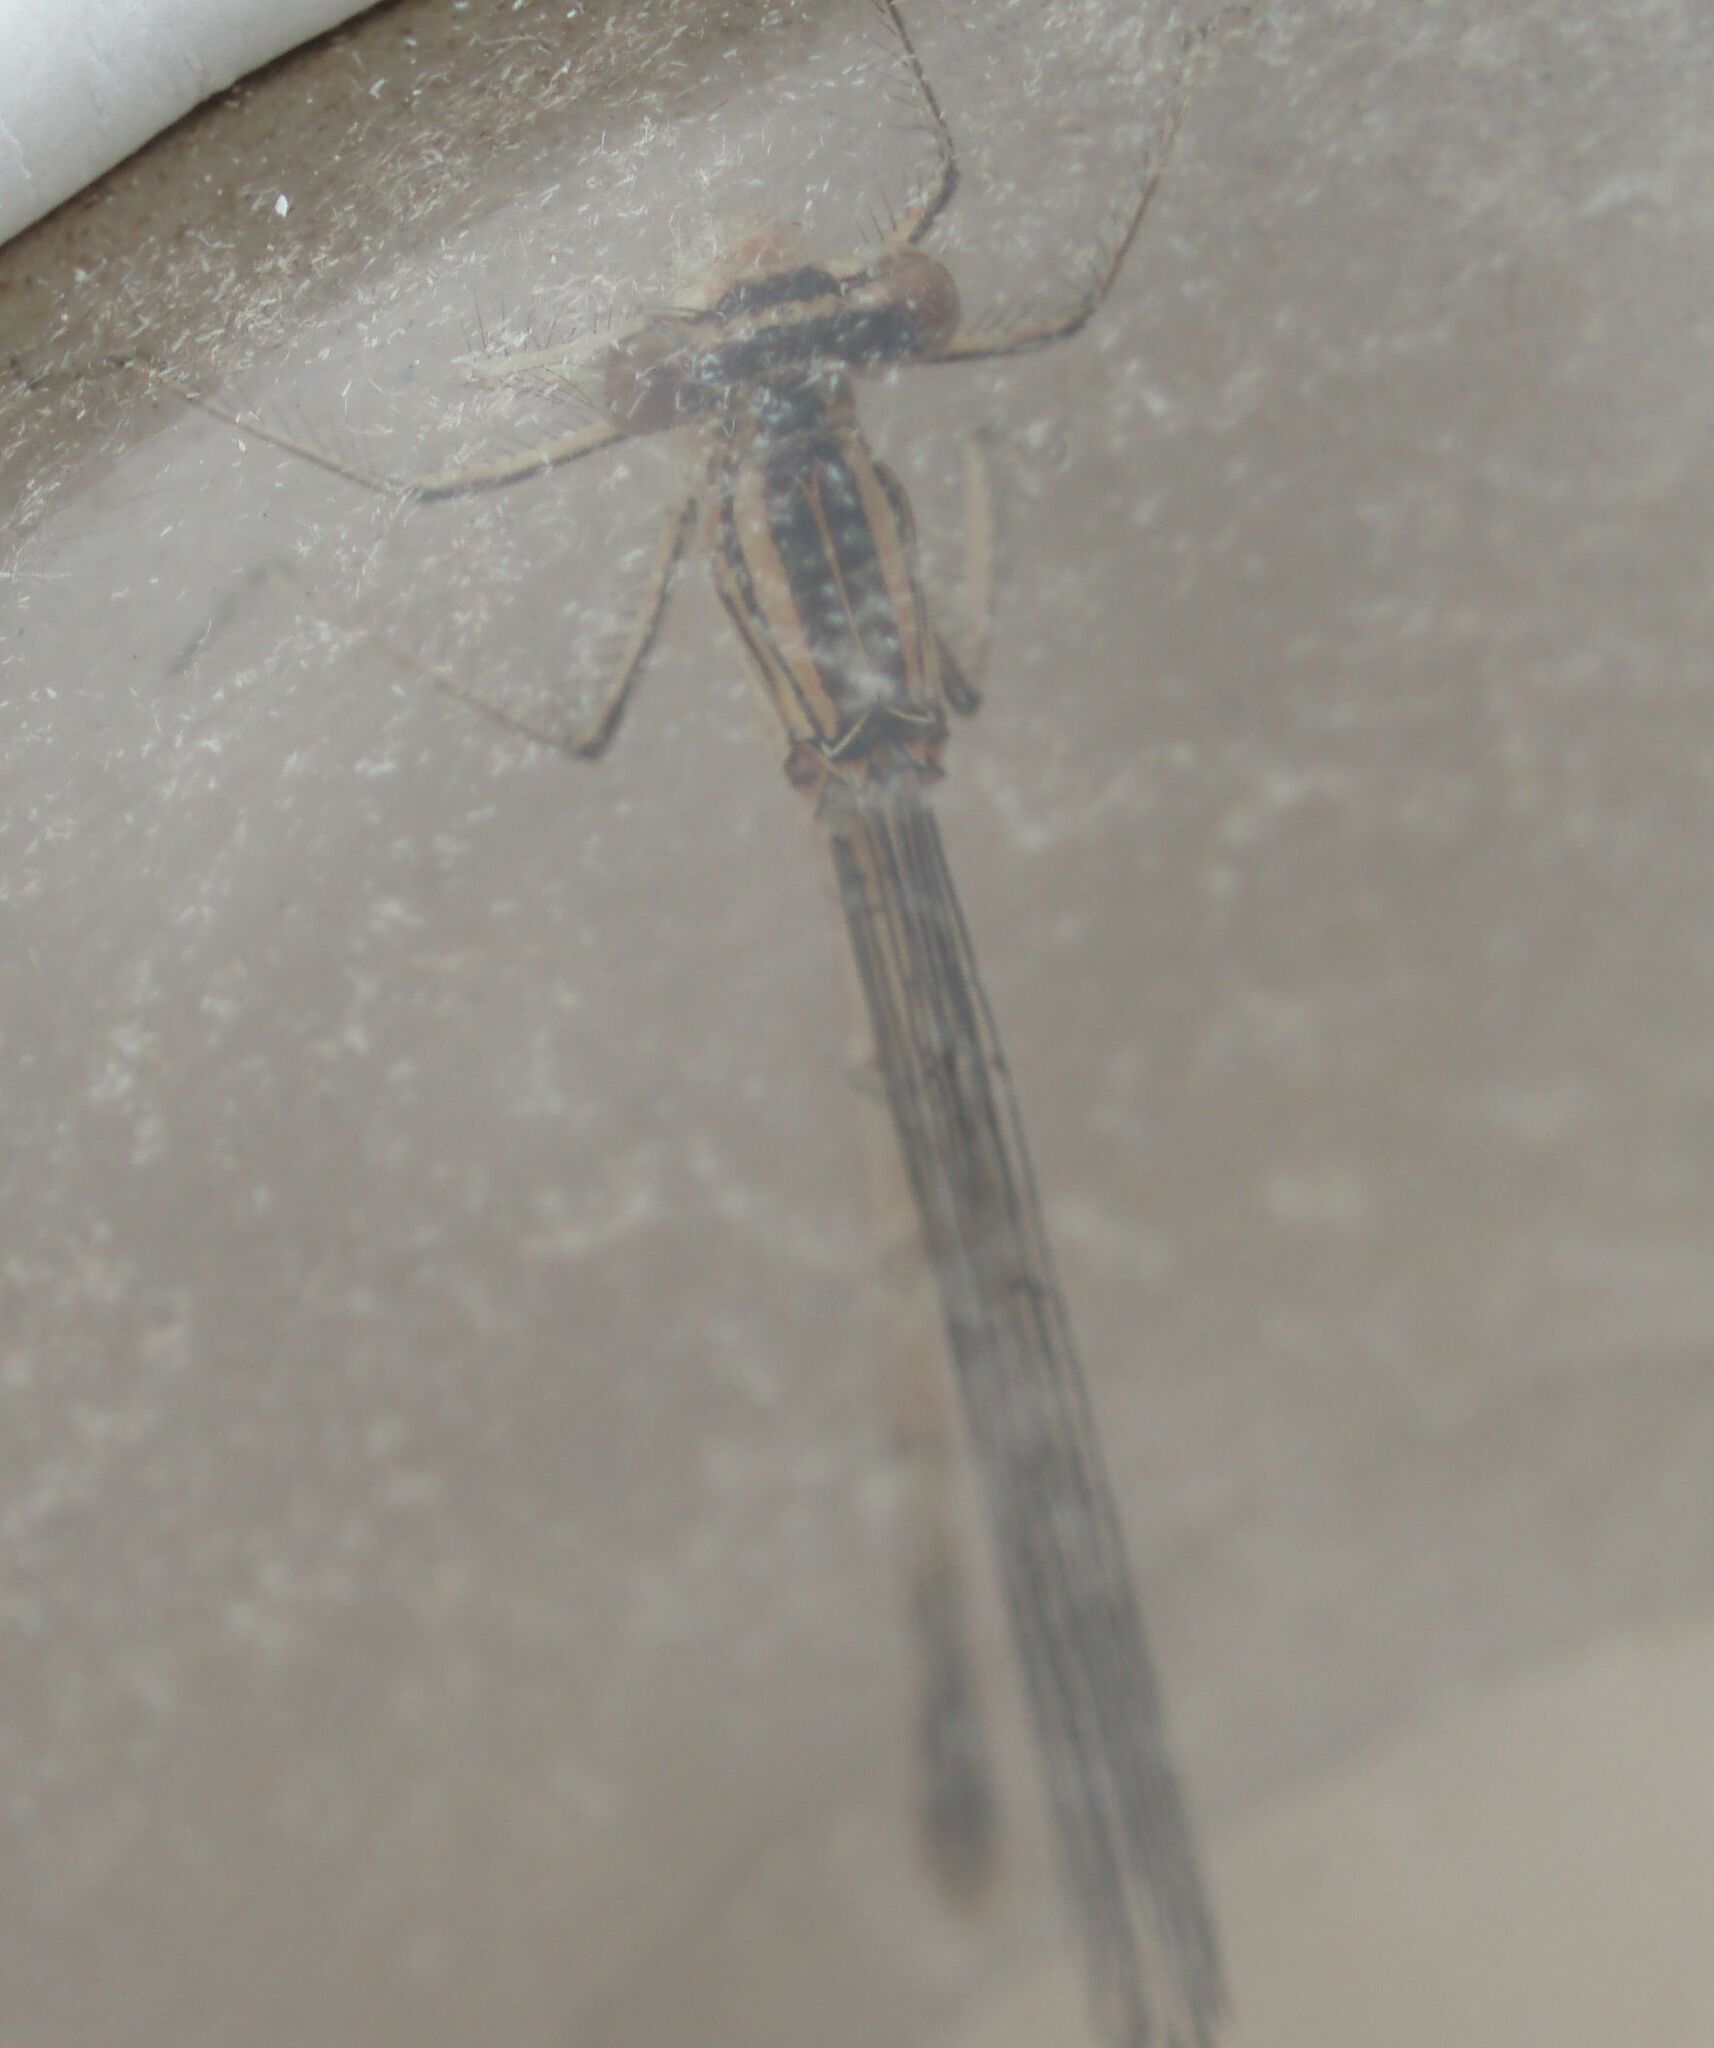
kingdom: Animalia
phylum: Arthropoda
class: Insecta
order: Odonata
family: Platycnemididae
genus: Platycnemis
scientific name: Platycnemis pennipes
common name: White-legged damselfly
